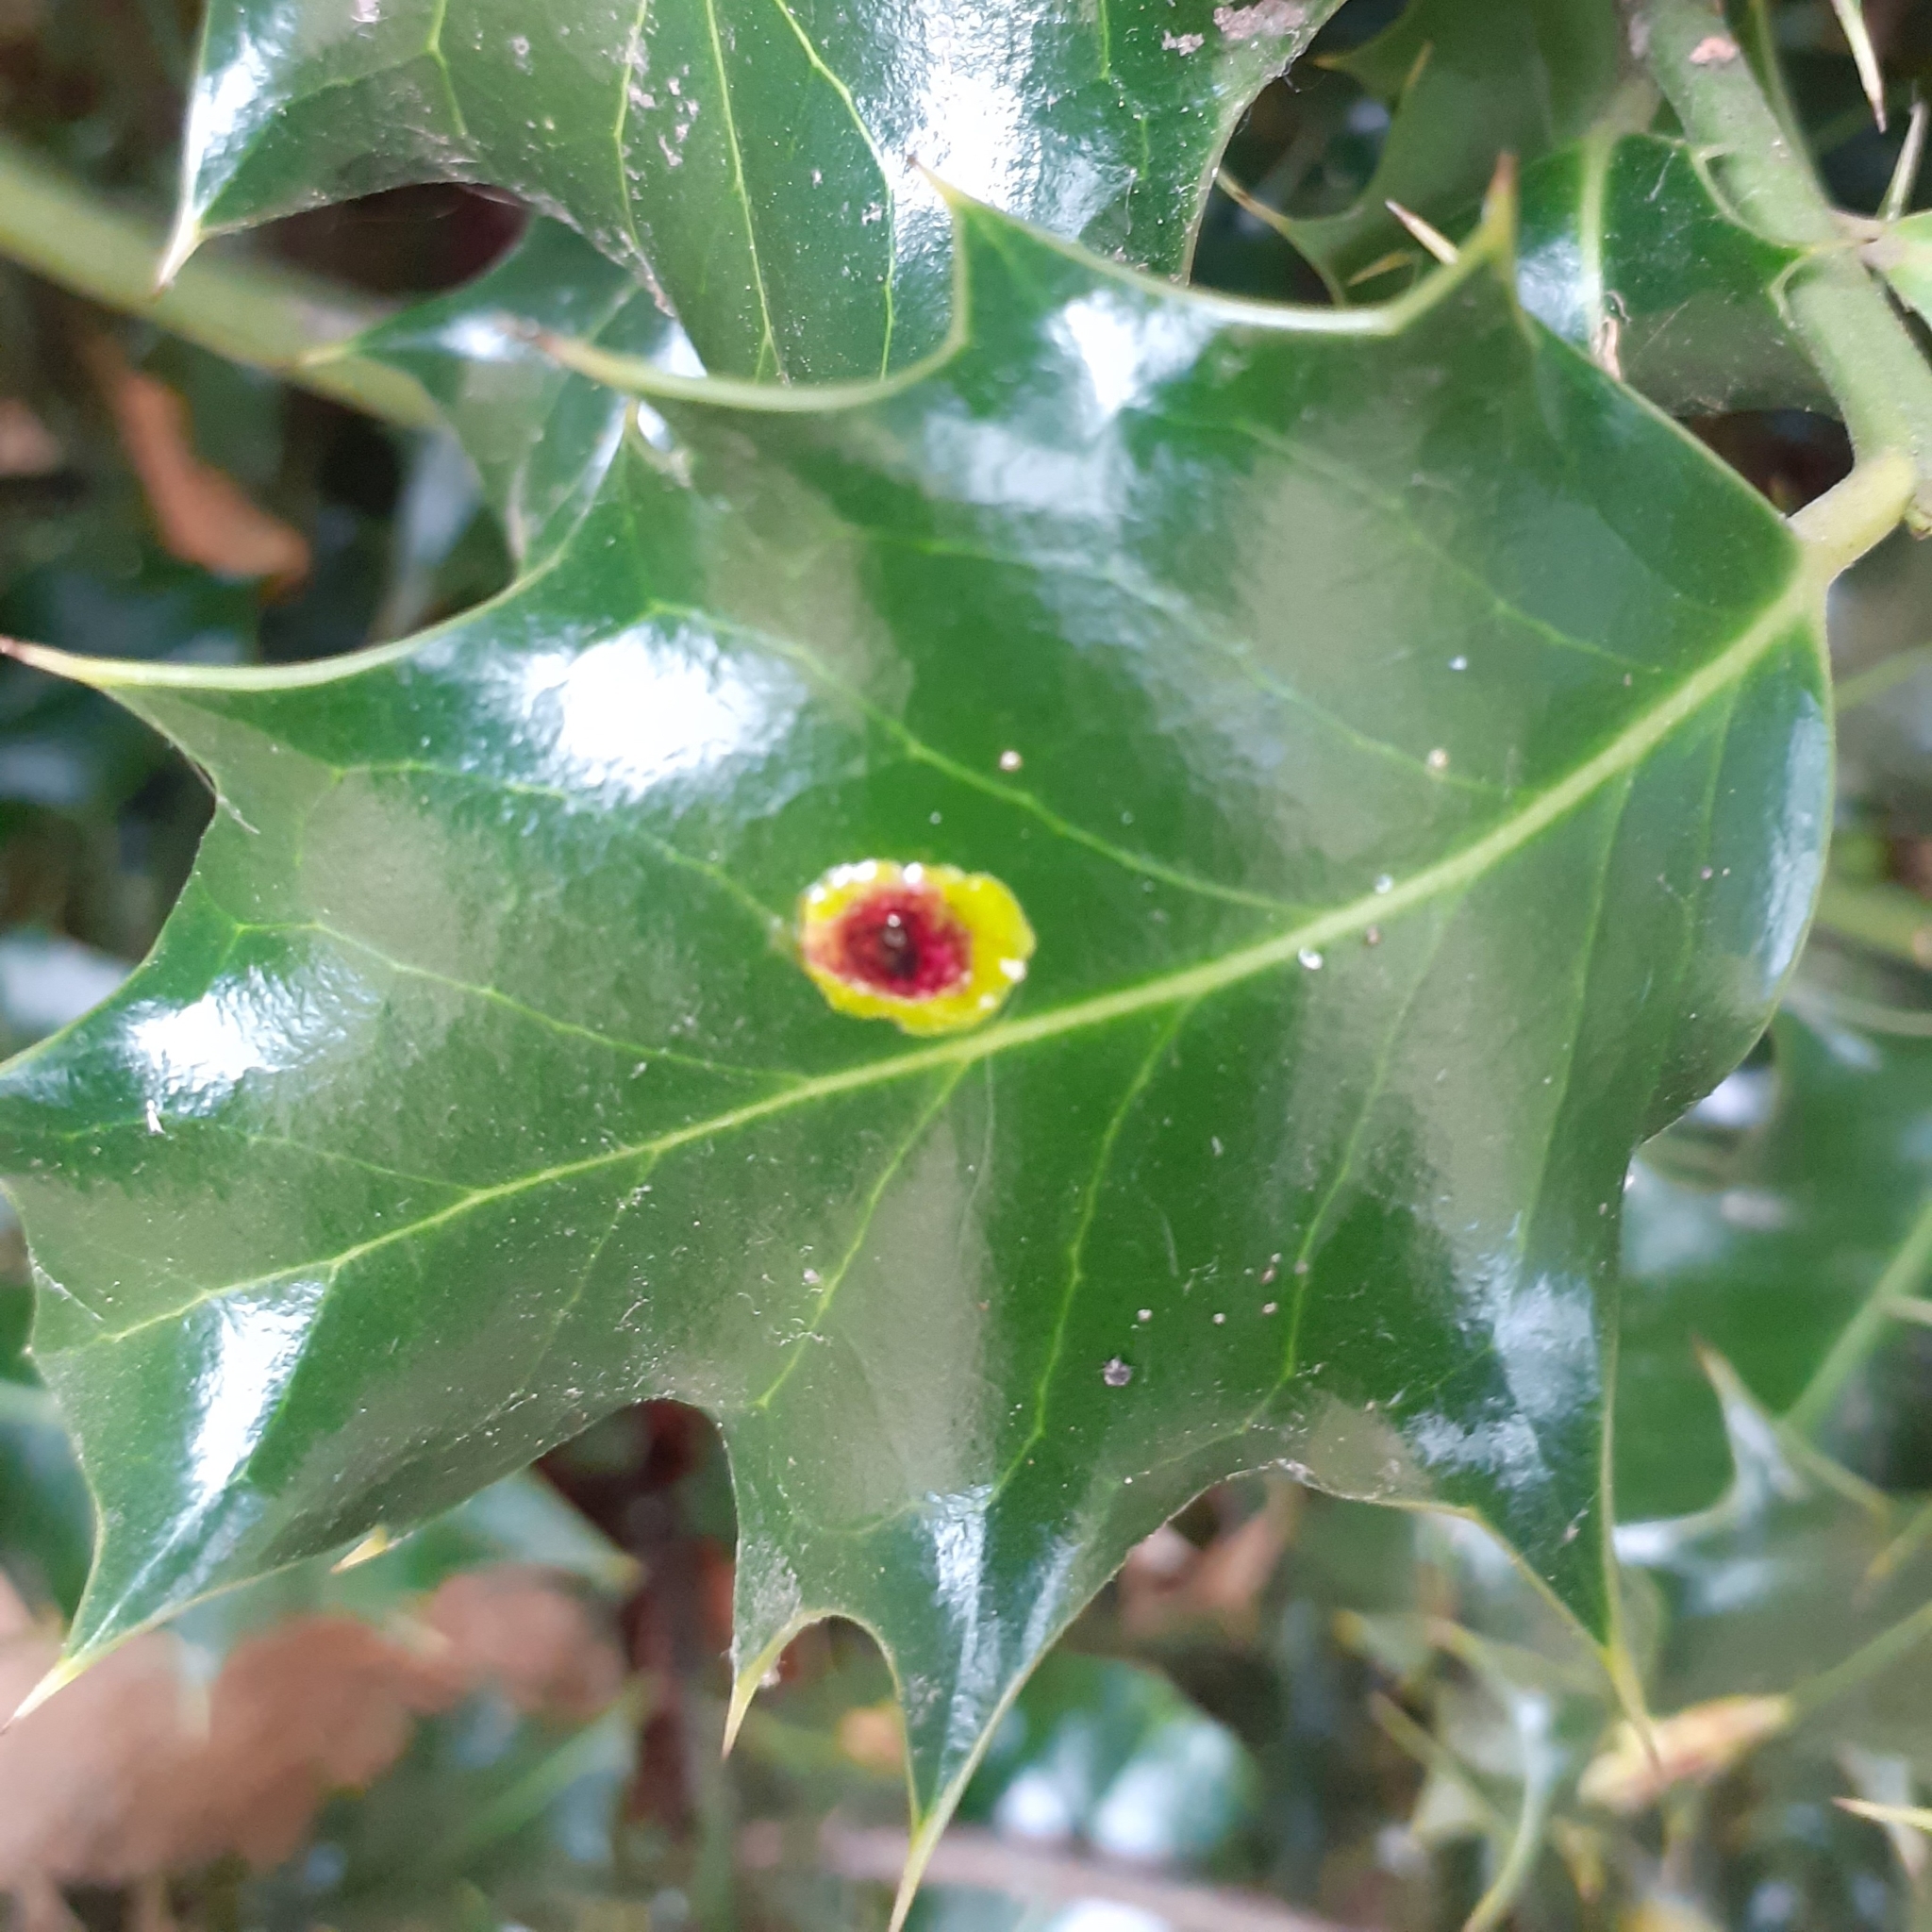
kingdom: Animalia
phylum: Arthropoda
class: Insecta
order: Diptera
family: Agromyzidae
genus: Phytomyza
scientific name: Phytomyza ilicis
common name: Holly leafminer
